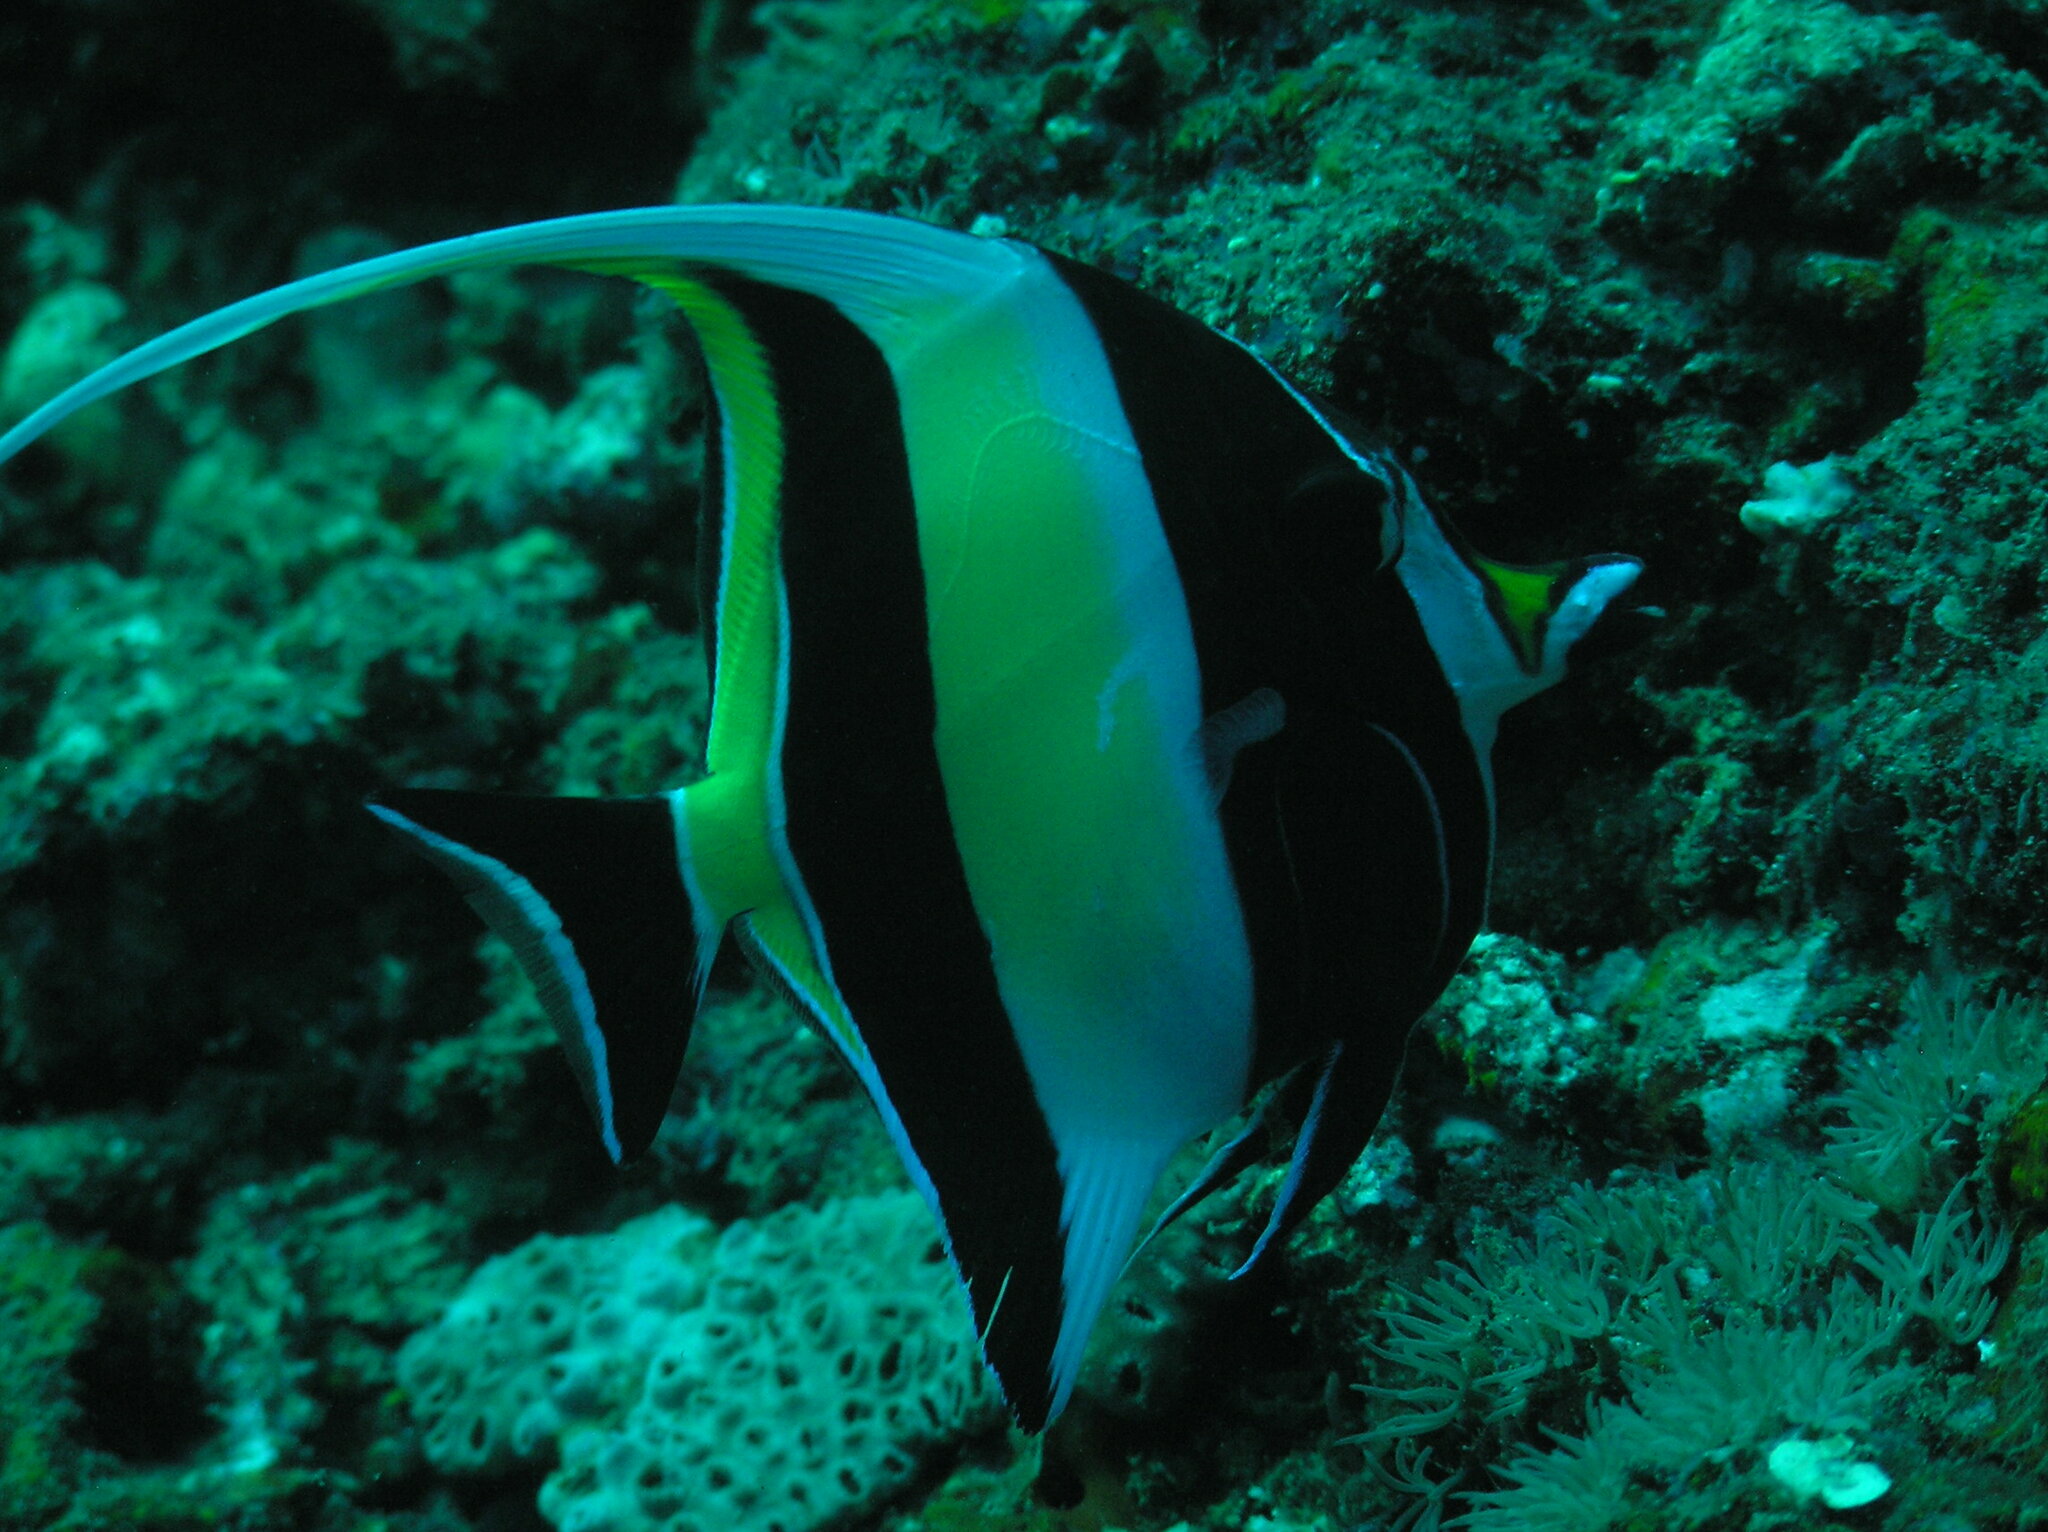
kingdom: Animalia
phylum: Chordata
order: Perciformes
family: Zanclidae
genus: Zanclus
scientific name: Zanclus cornutus
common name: Moorish idol
